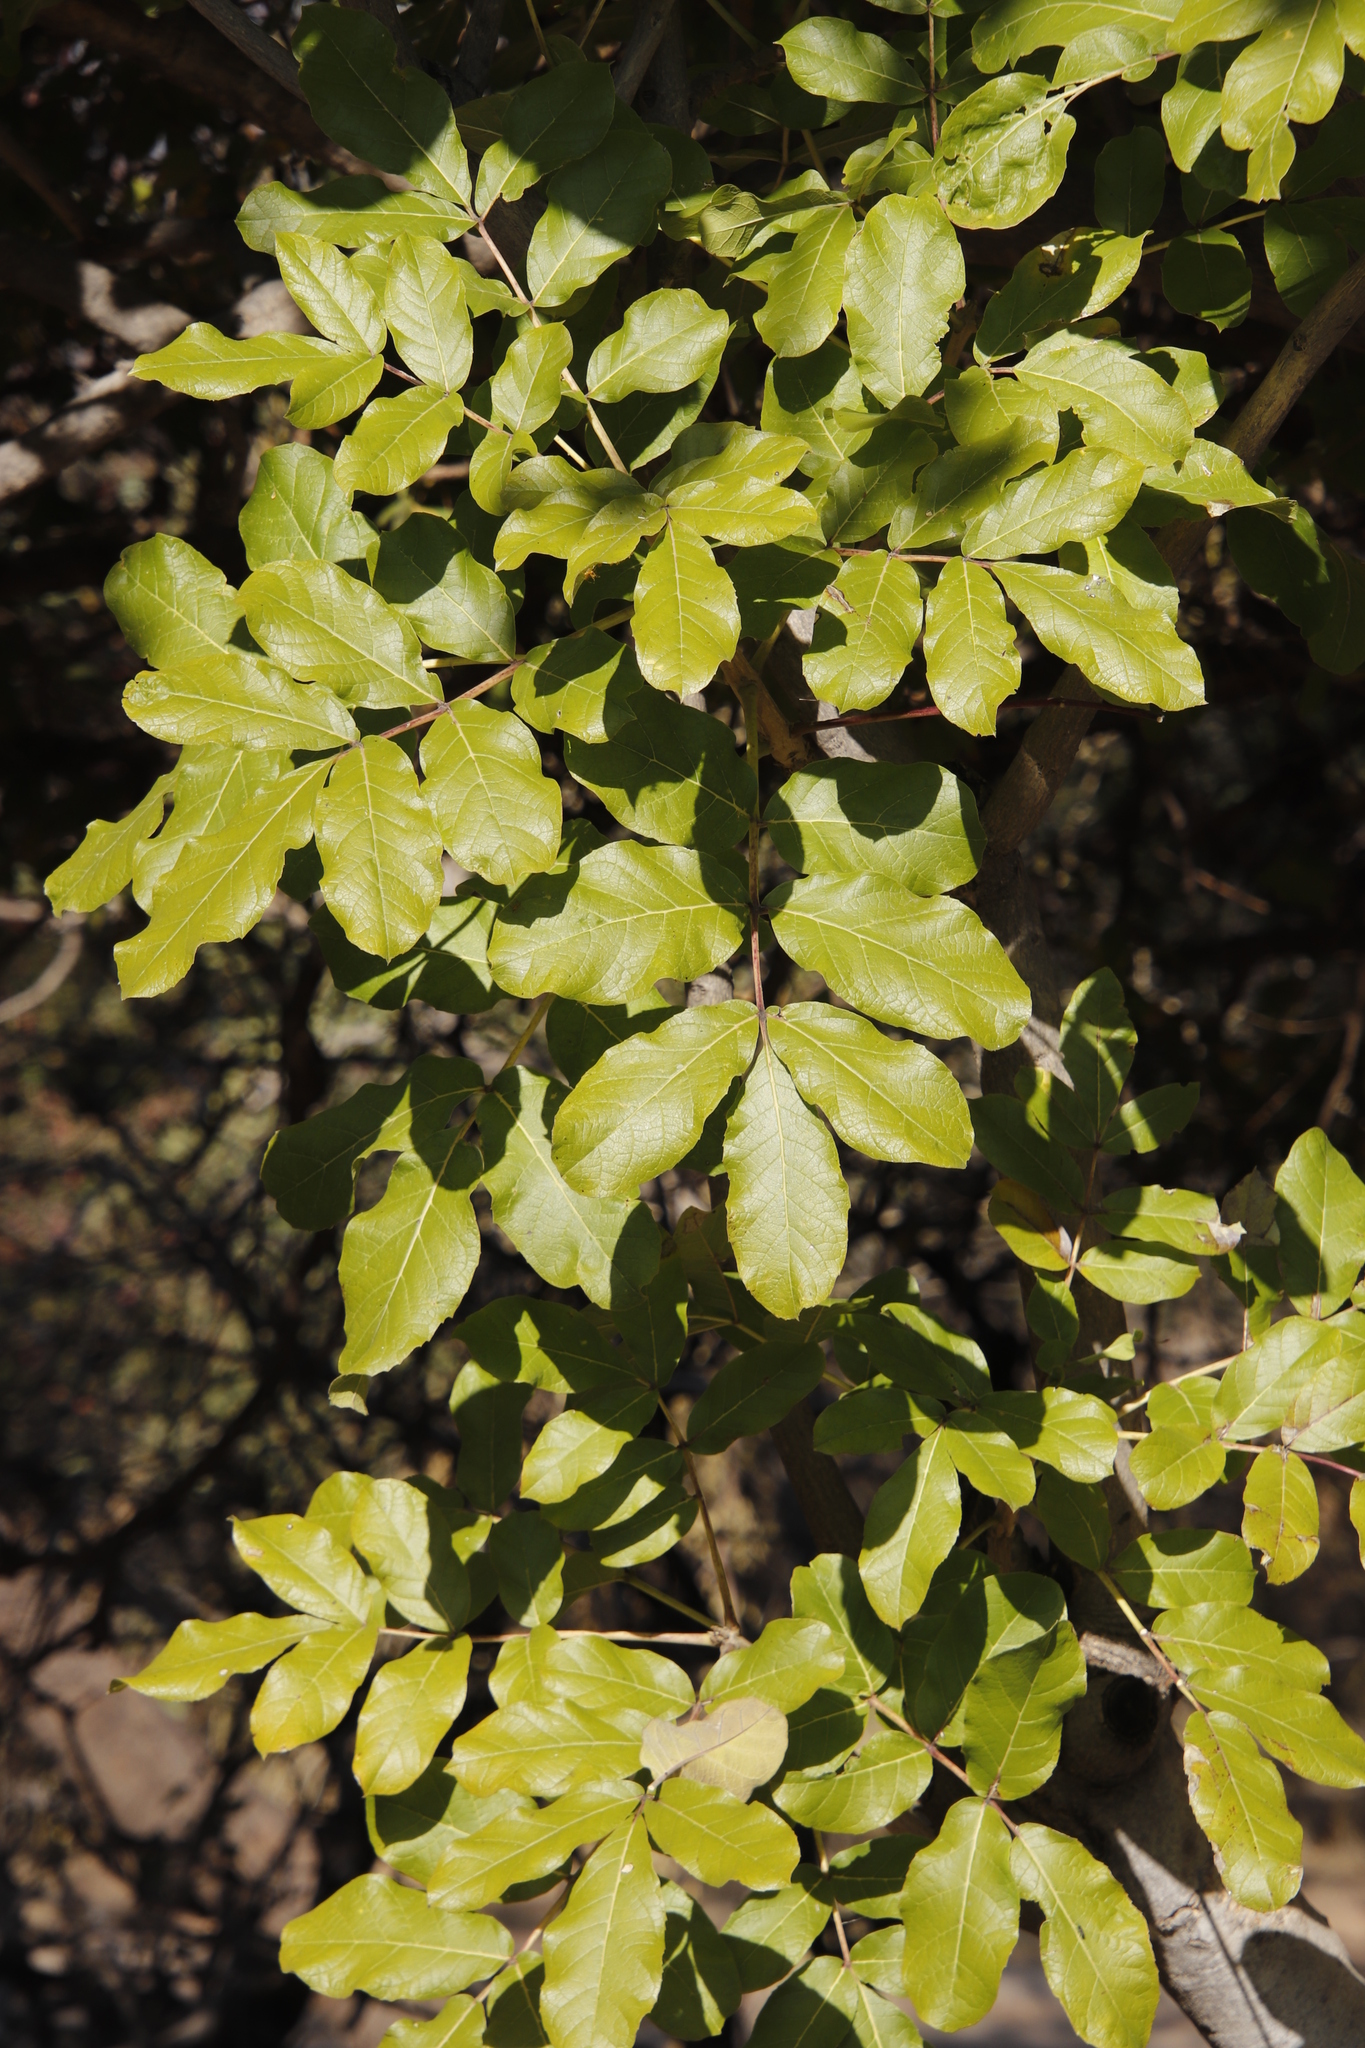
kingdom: Plantae
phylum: Tracheophyta
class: Magnoliopsida
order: Lamiales
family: Bignoniaceae
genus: Kigelia
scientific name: Kigelia africana
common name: Sausage tree
